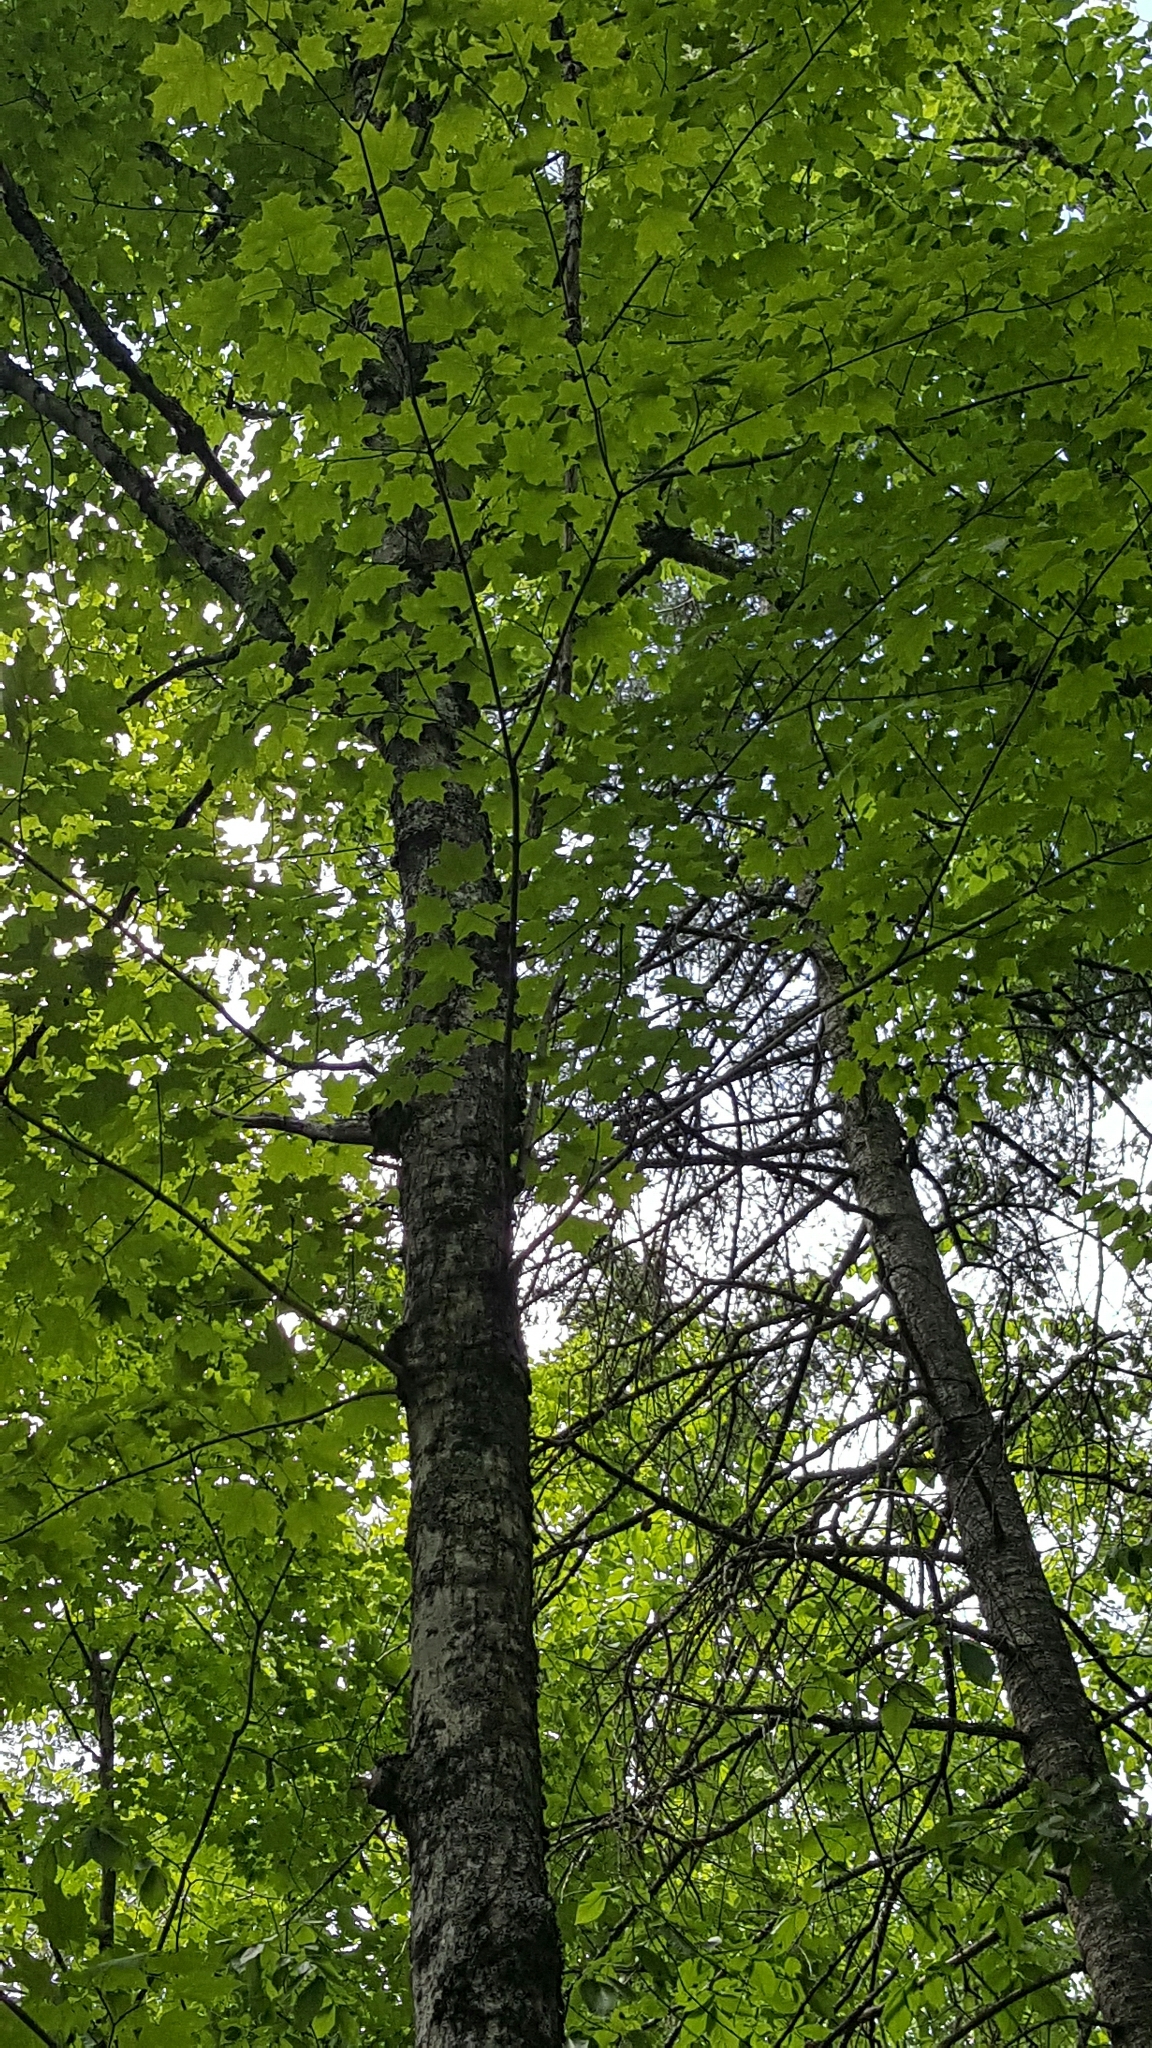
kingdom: Plantae
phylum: Tracheophyta
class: Magnoliopsida
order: Sapindales
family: Sapindaceae
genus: Acer
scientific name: Acer saccharum
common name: Sugar maple
